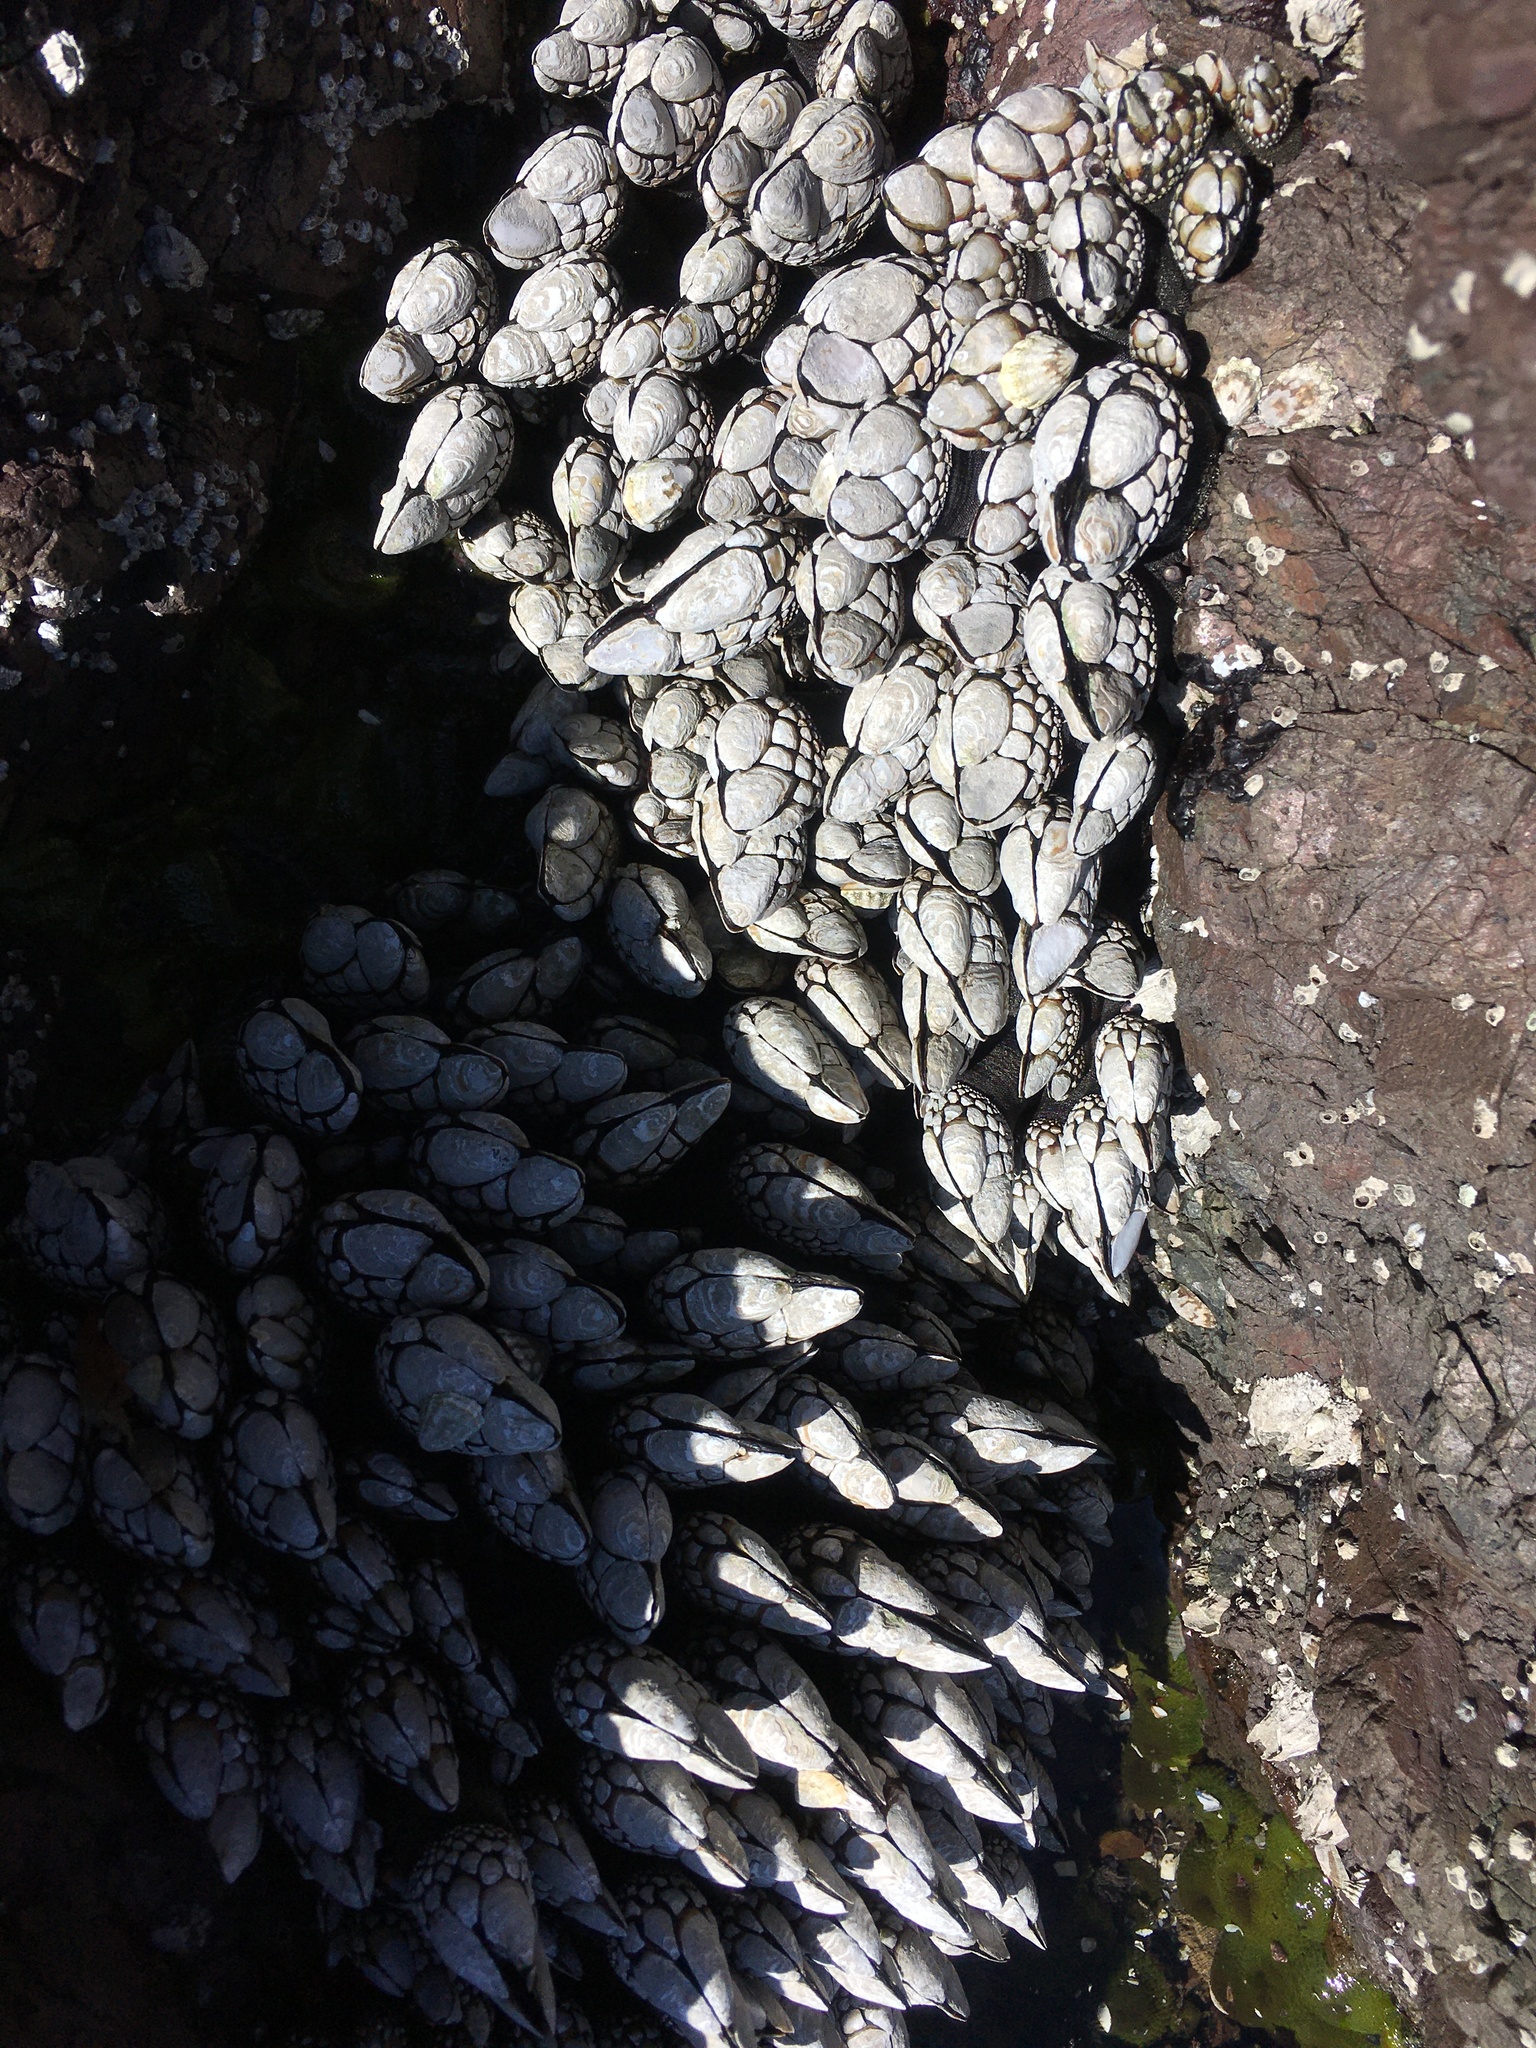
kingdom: Animalia
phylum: Arthropoda
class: Maxillopoda
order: Pedunculata
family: Pollicipedidae
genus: Pollicipes
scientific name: Pollicipes polymerus
